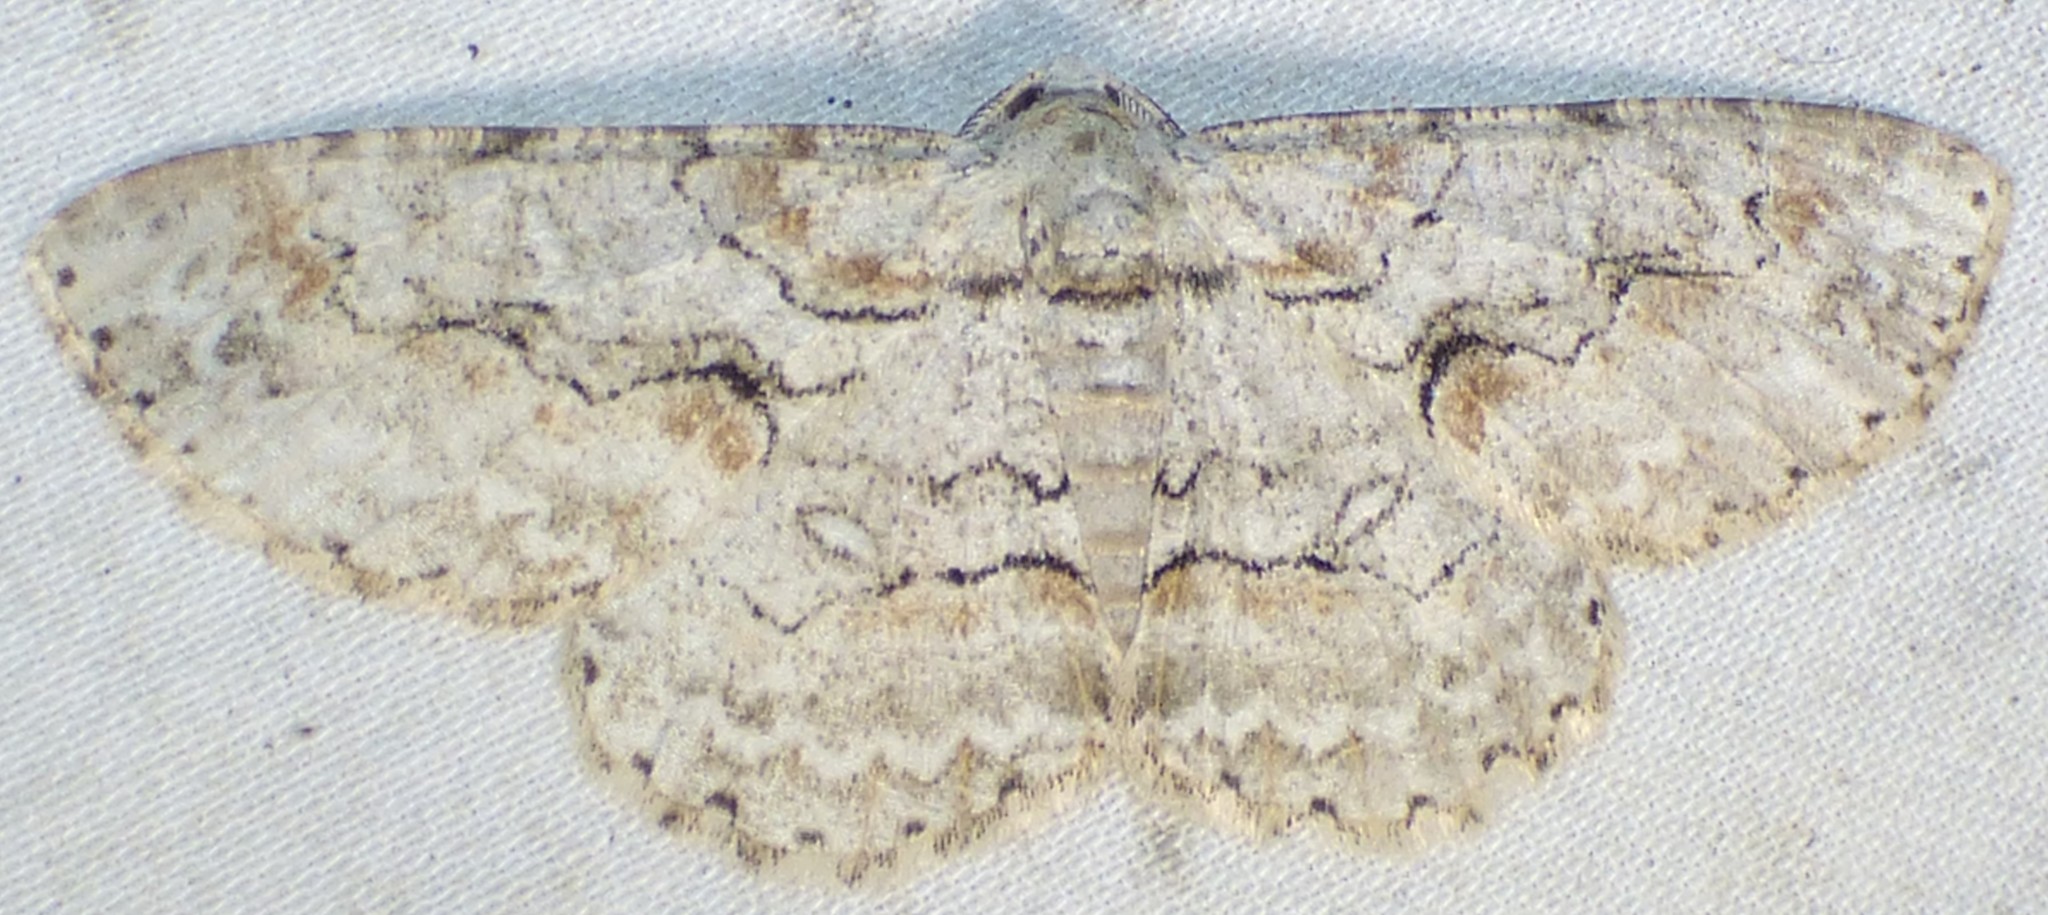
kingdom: Animalia
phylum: Arthropoda
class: Insecta
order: Lepidoptera
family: Geometridae
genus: Iridopsis
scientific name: Iridopsis defectaria
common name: Brown-shaded gray
